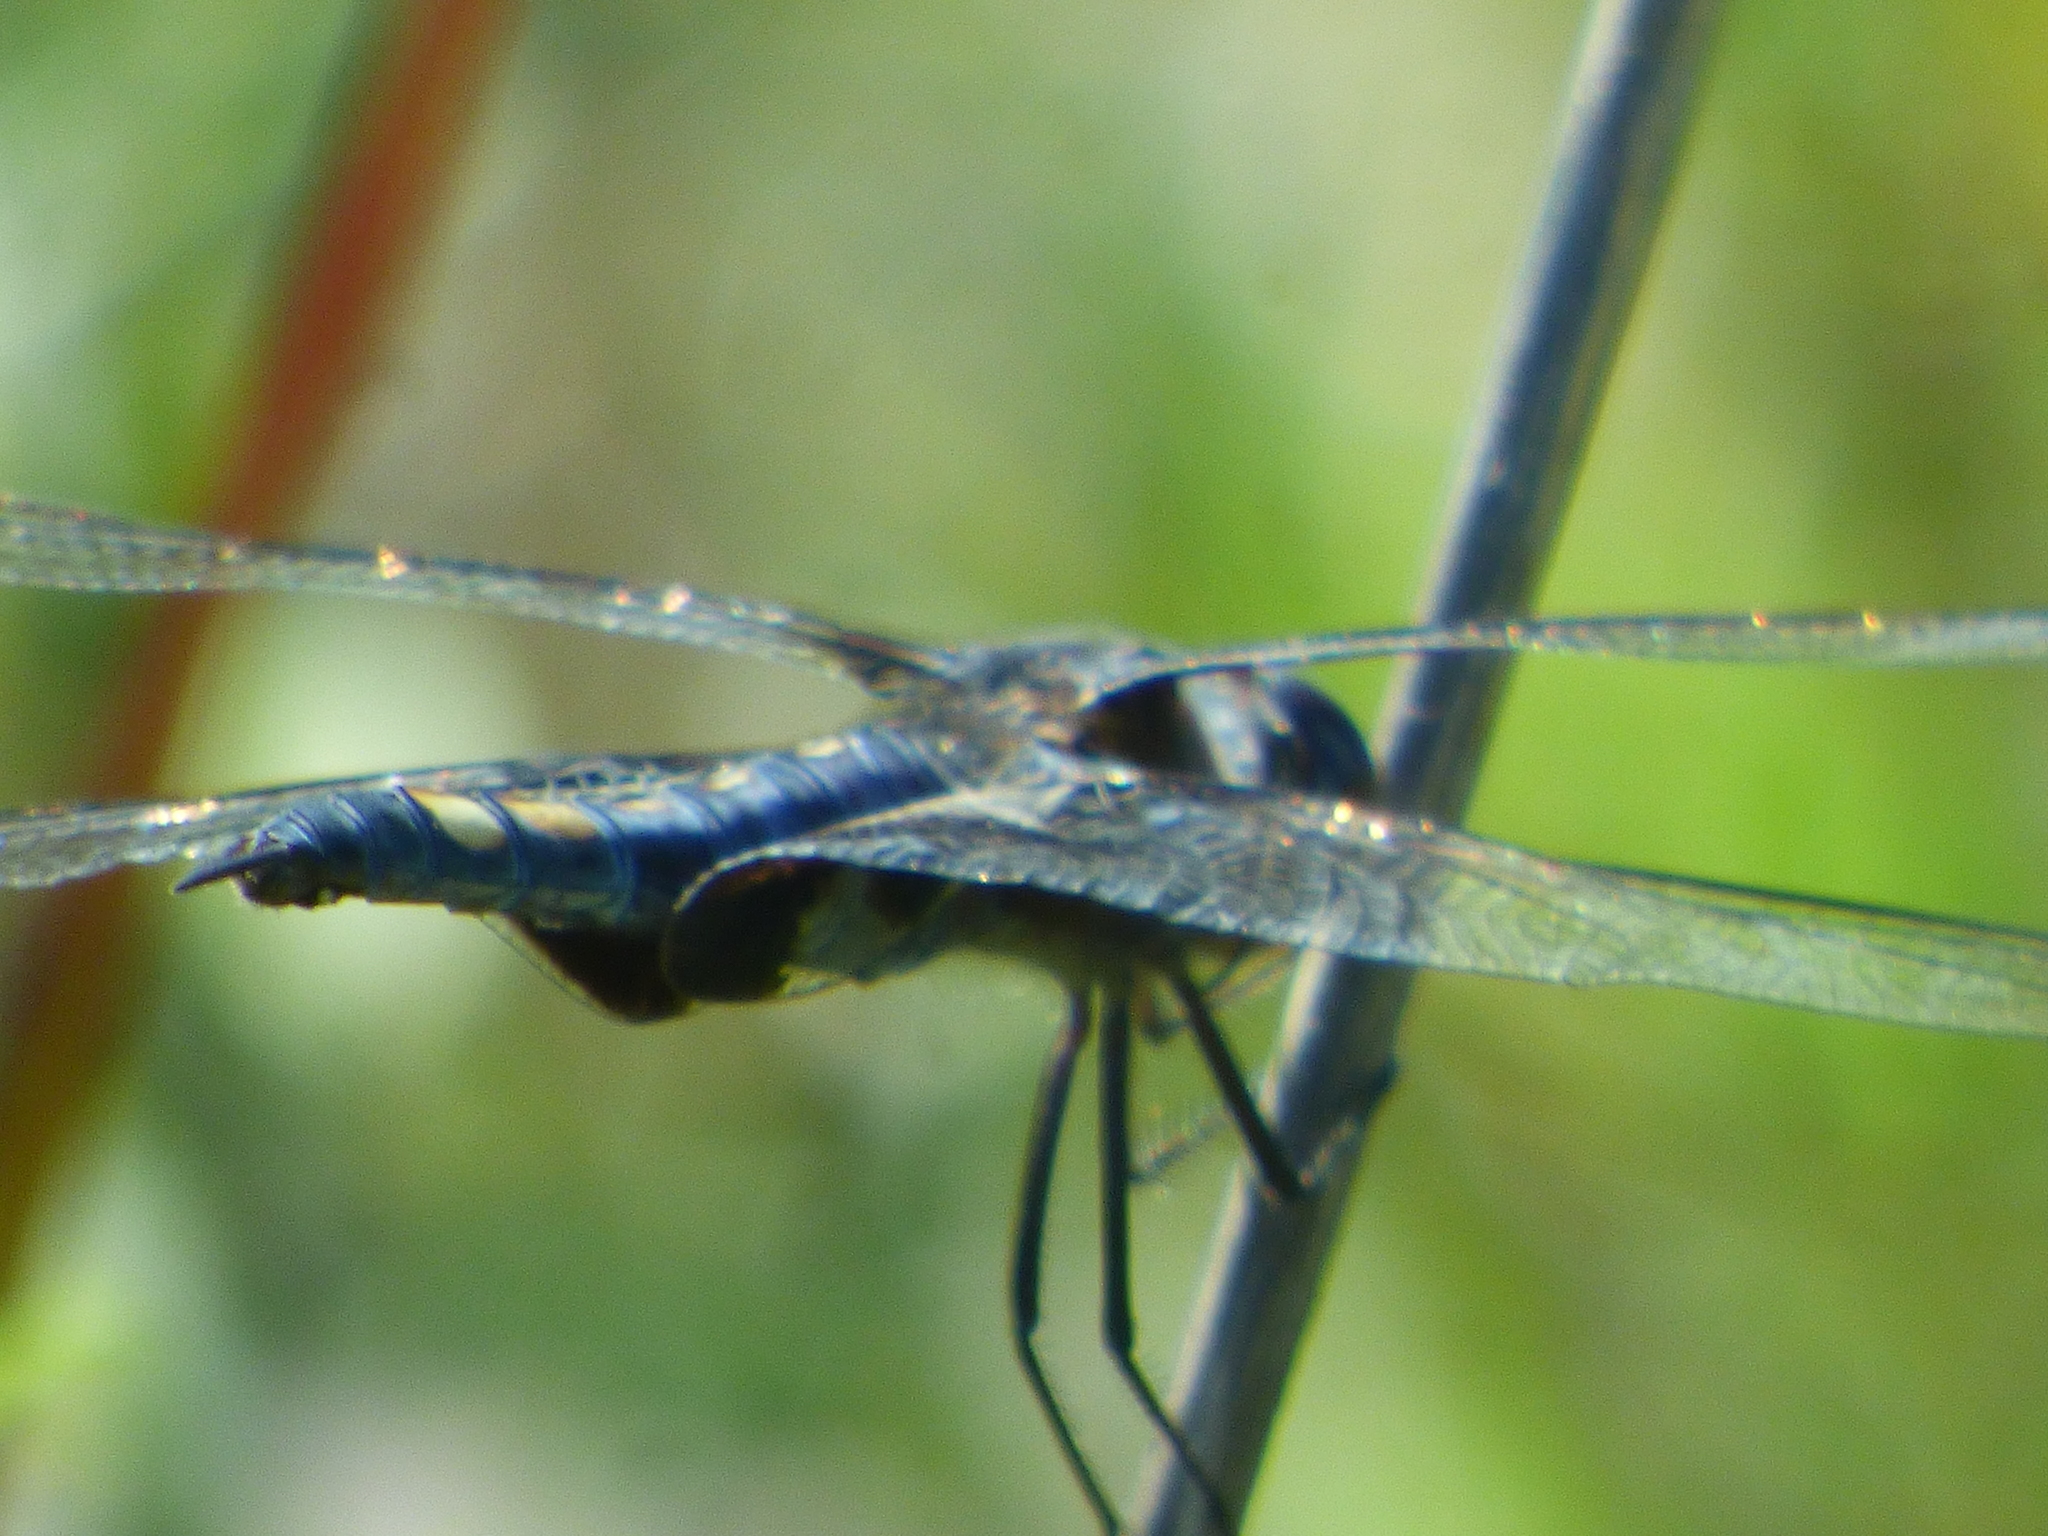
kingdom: Animalia
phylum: Arthropoda
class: Insecta
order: Odonata
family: Libellulidae
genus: Tramea
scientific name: Tramea lacerata
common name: Black saddlebags
